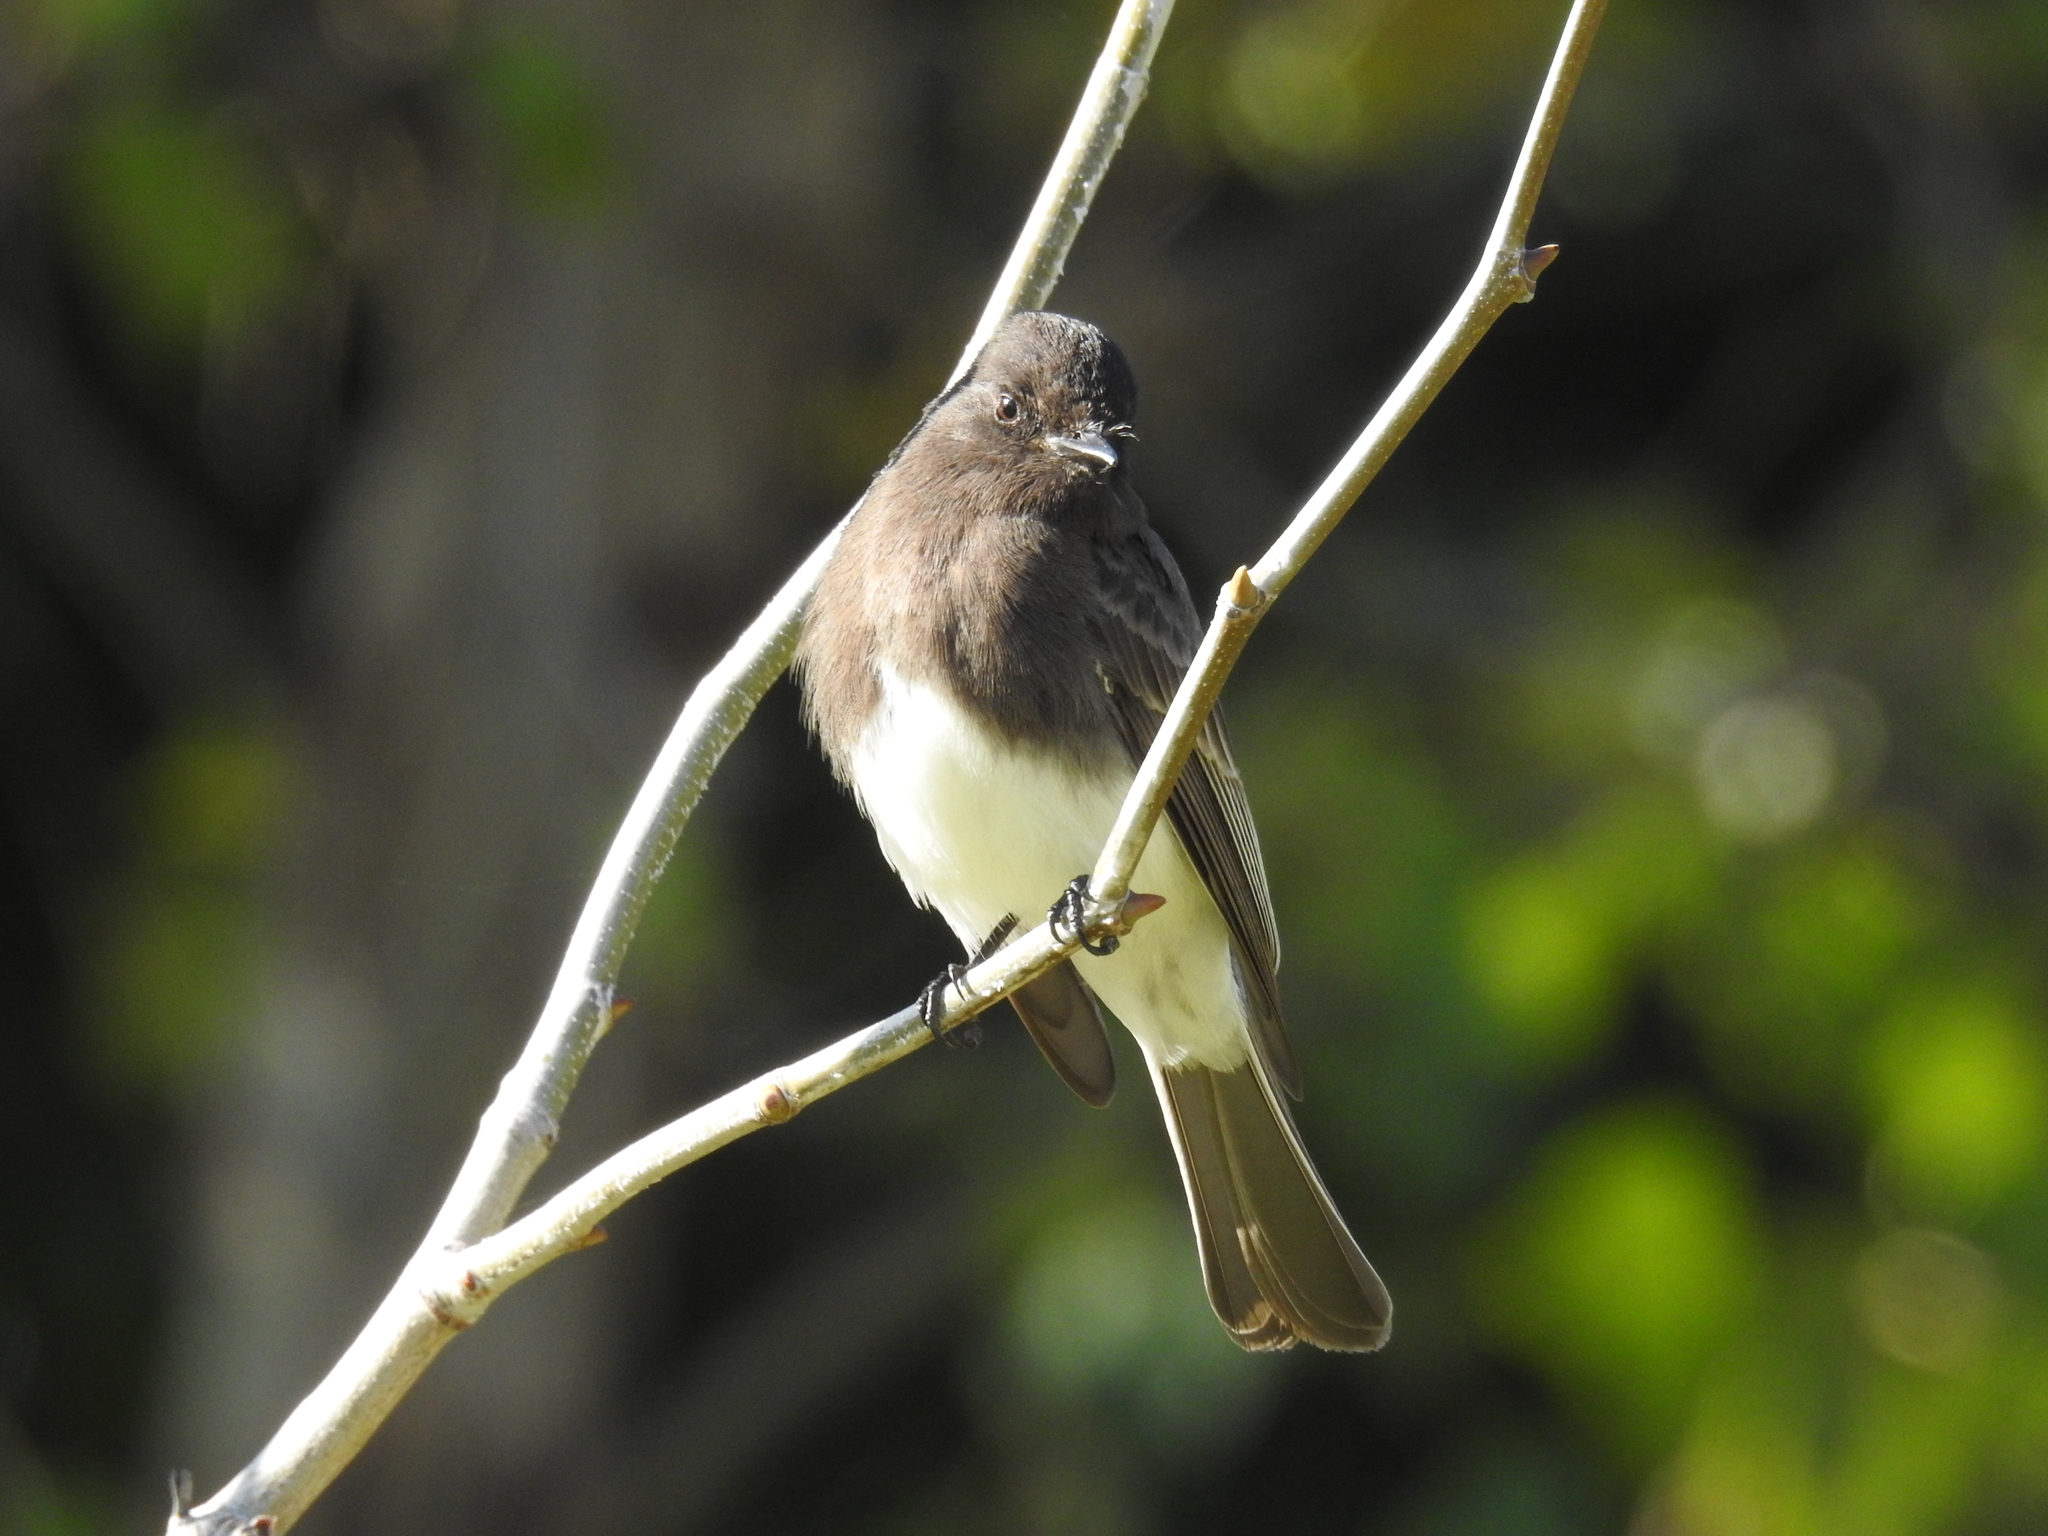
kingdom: Animalia
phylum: Chordata
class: Aves
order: Passeriformes
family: Tyrannidae
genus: Sayornis
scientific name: Sayornis nigricans
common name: Black phoebe
